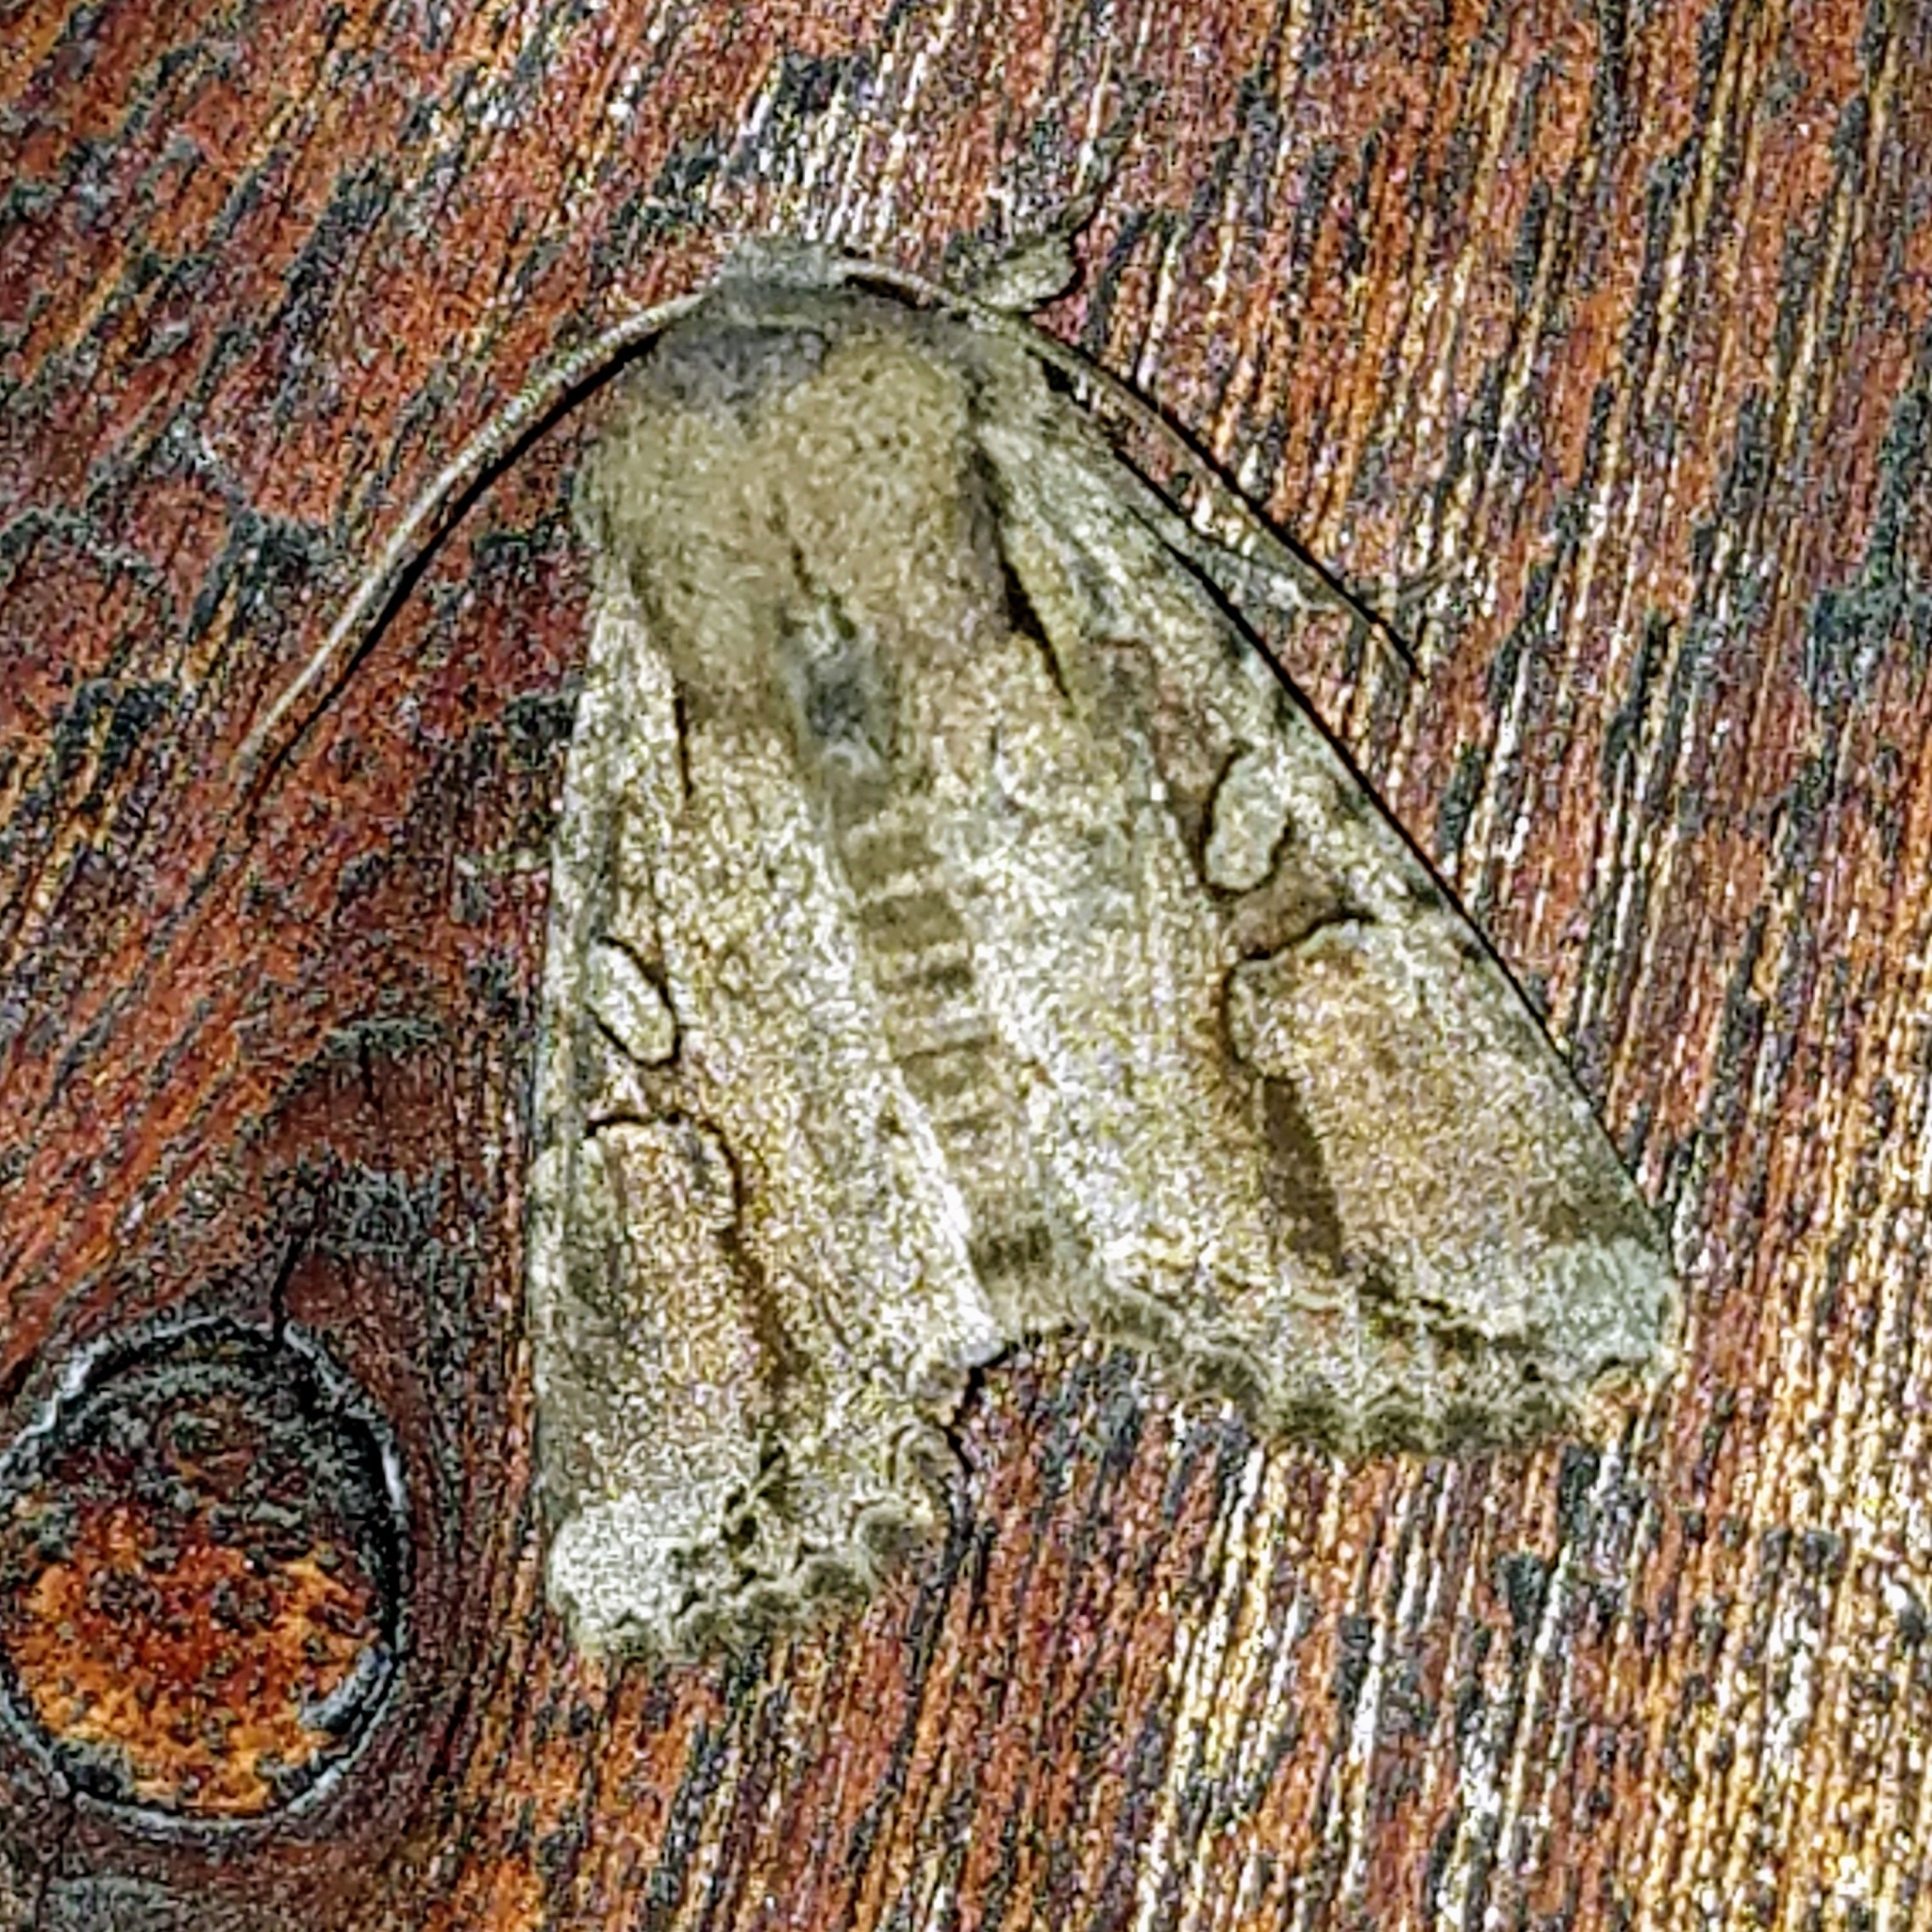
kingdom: Animalia
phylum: Arthropoda
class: Insecta
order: Lepidoptera
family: Noctuidae
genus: Egira
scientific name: Egira rubrica
